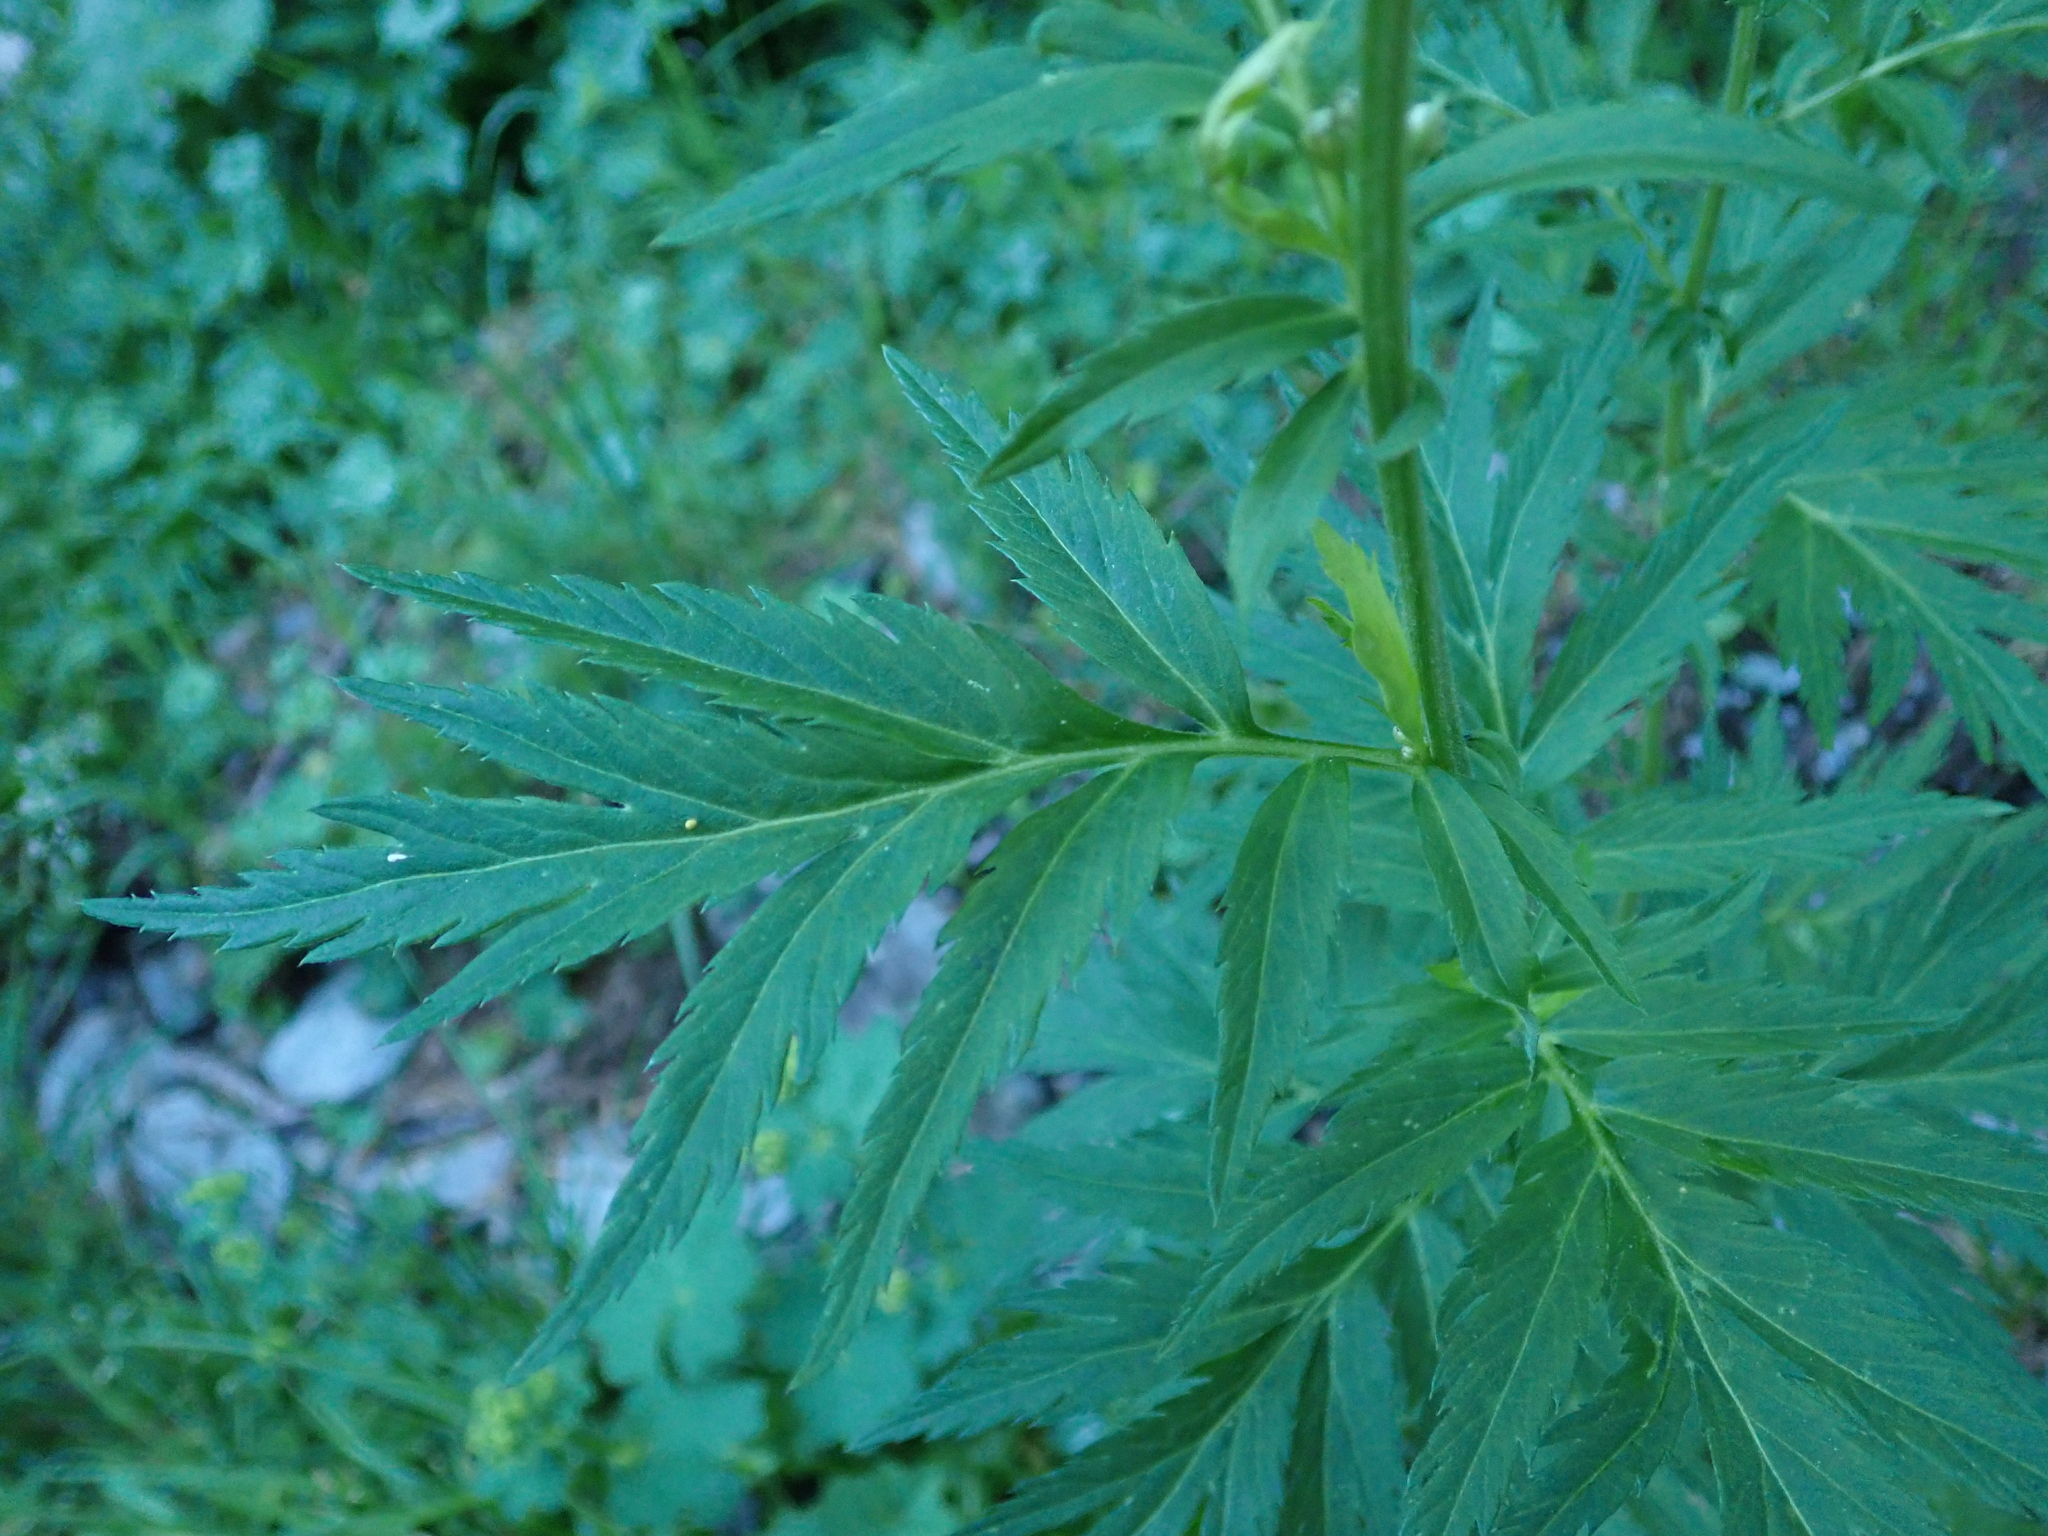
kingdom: Plantae
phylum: Tracheophyta
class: Magnoliopsida
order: Asterales
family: Asteraceae
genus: Achillea
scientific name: Achillea macrophylla
